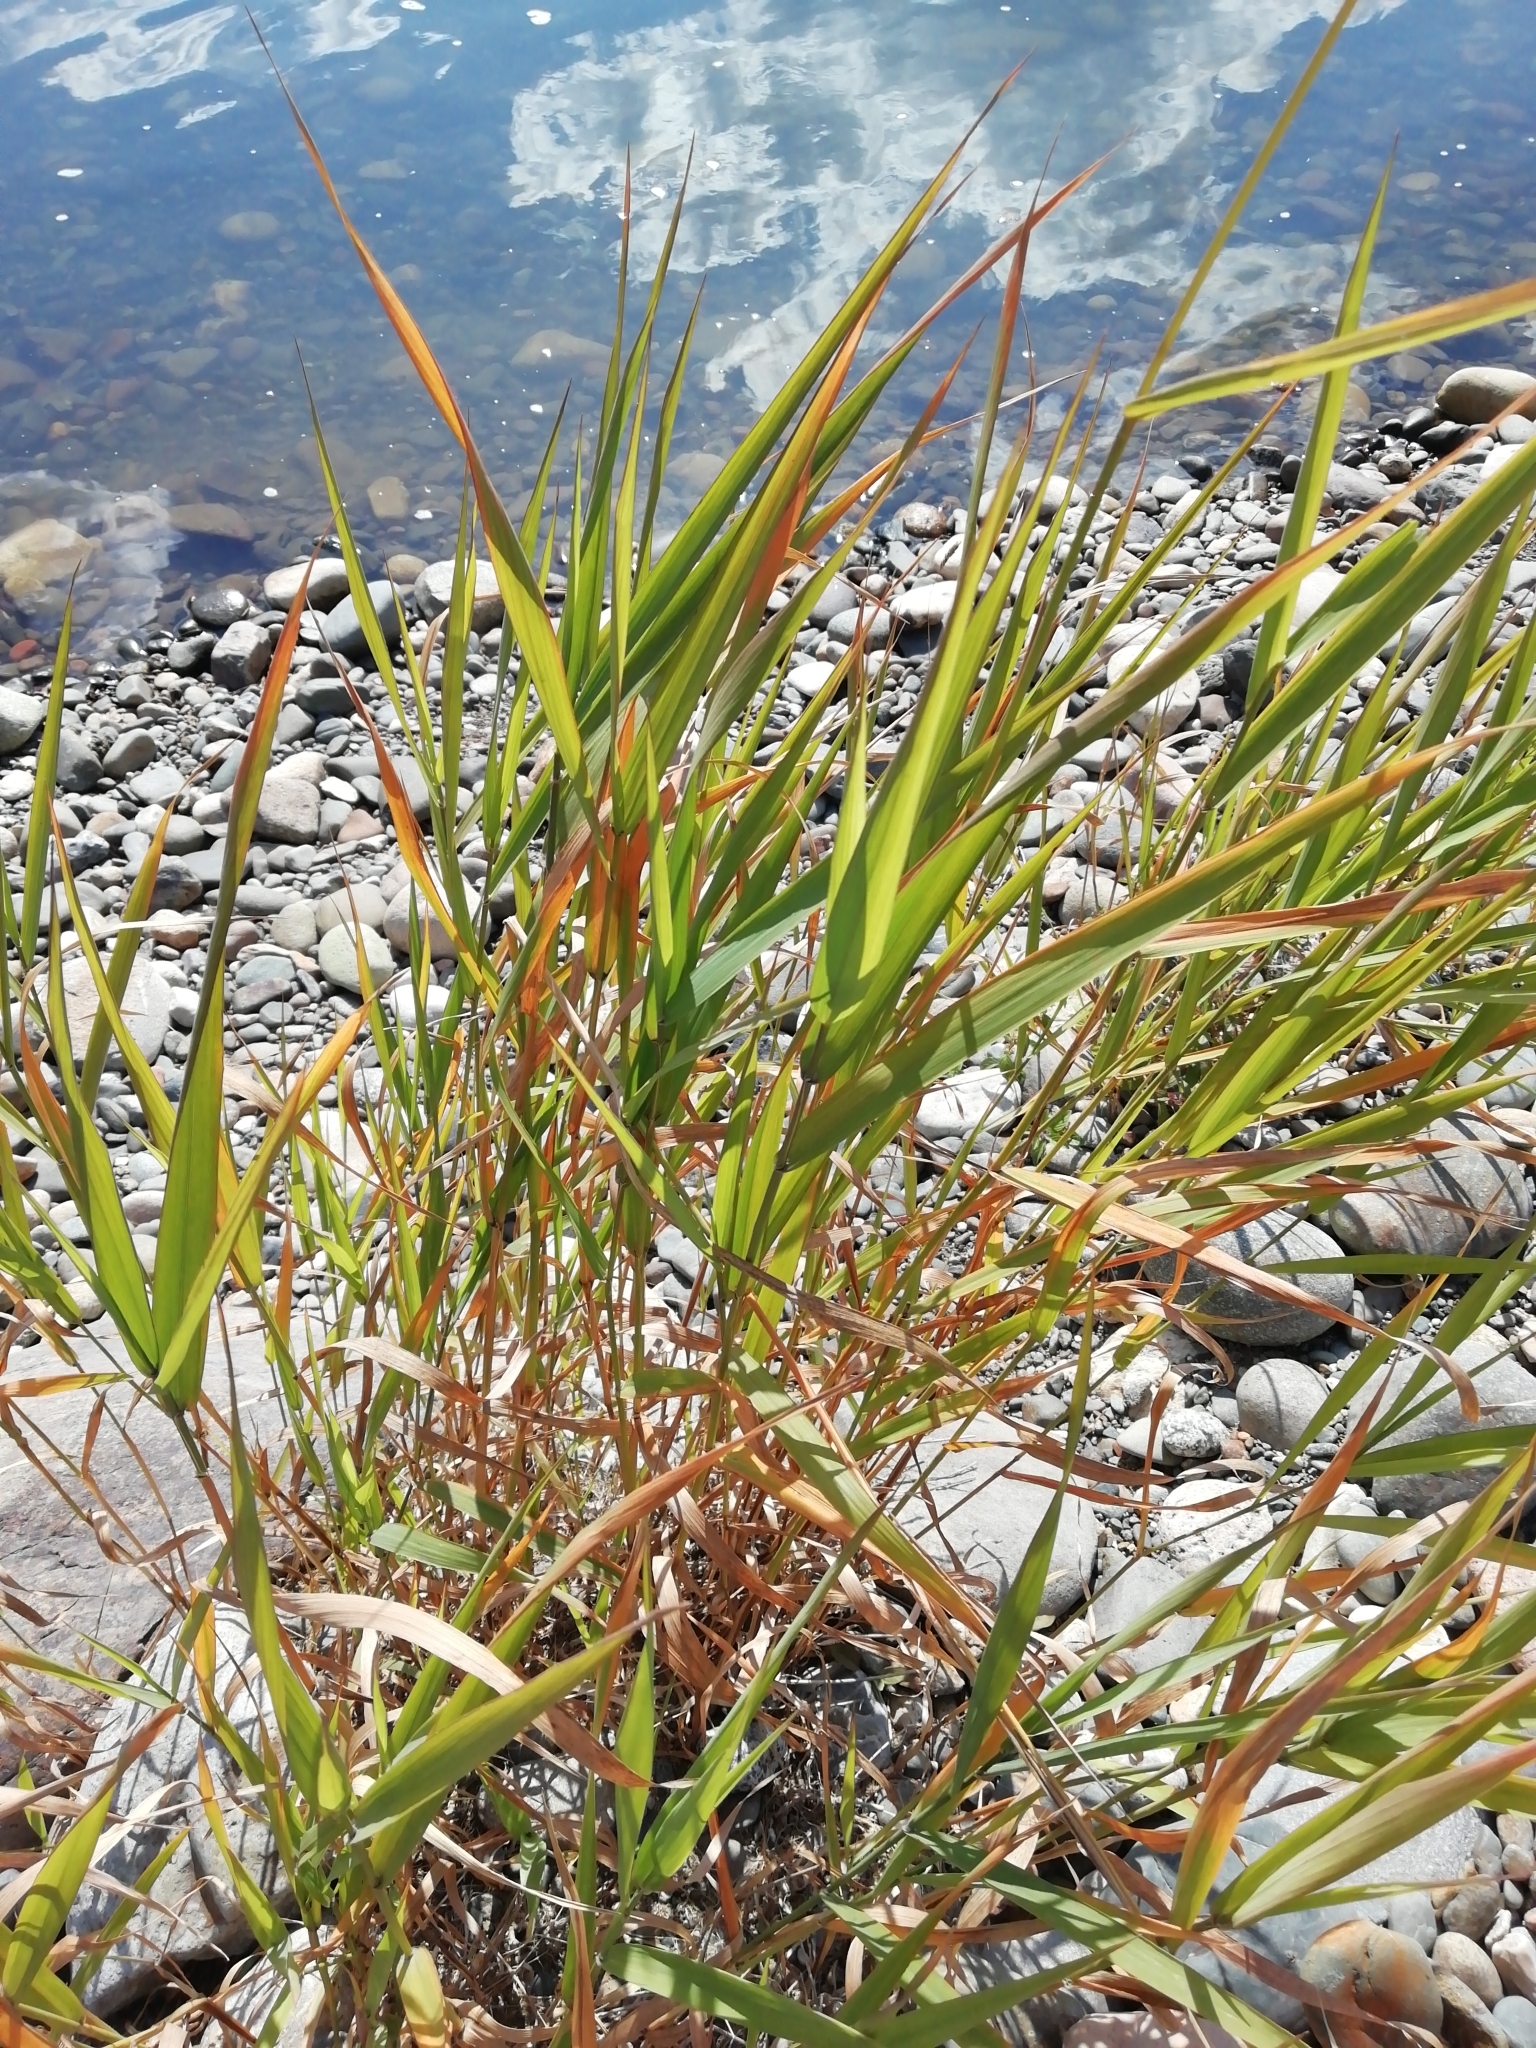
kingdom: Plantae
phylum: Tracheophyta
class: Liliopsida
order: Poales
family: Poaceae
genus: Phalaris
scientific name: Phalaris arundinacea
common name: Reed canary-grass
